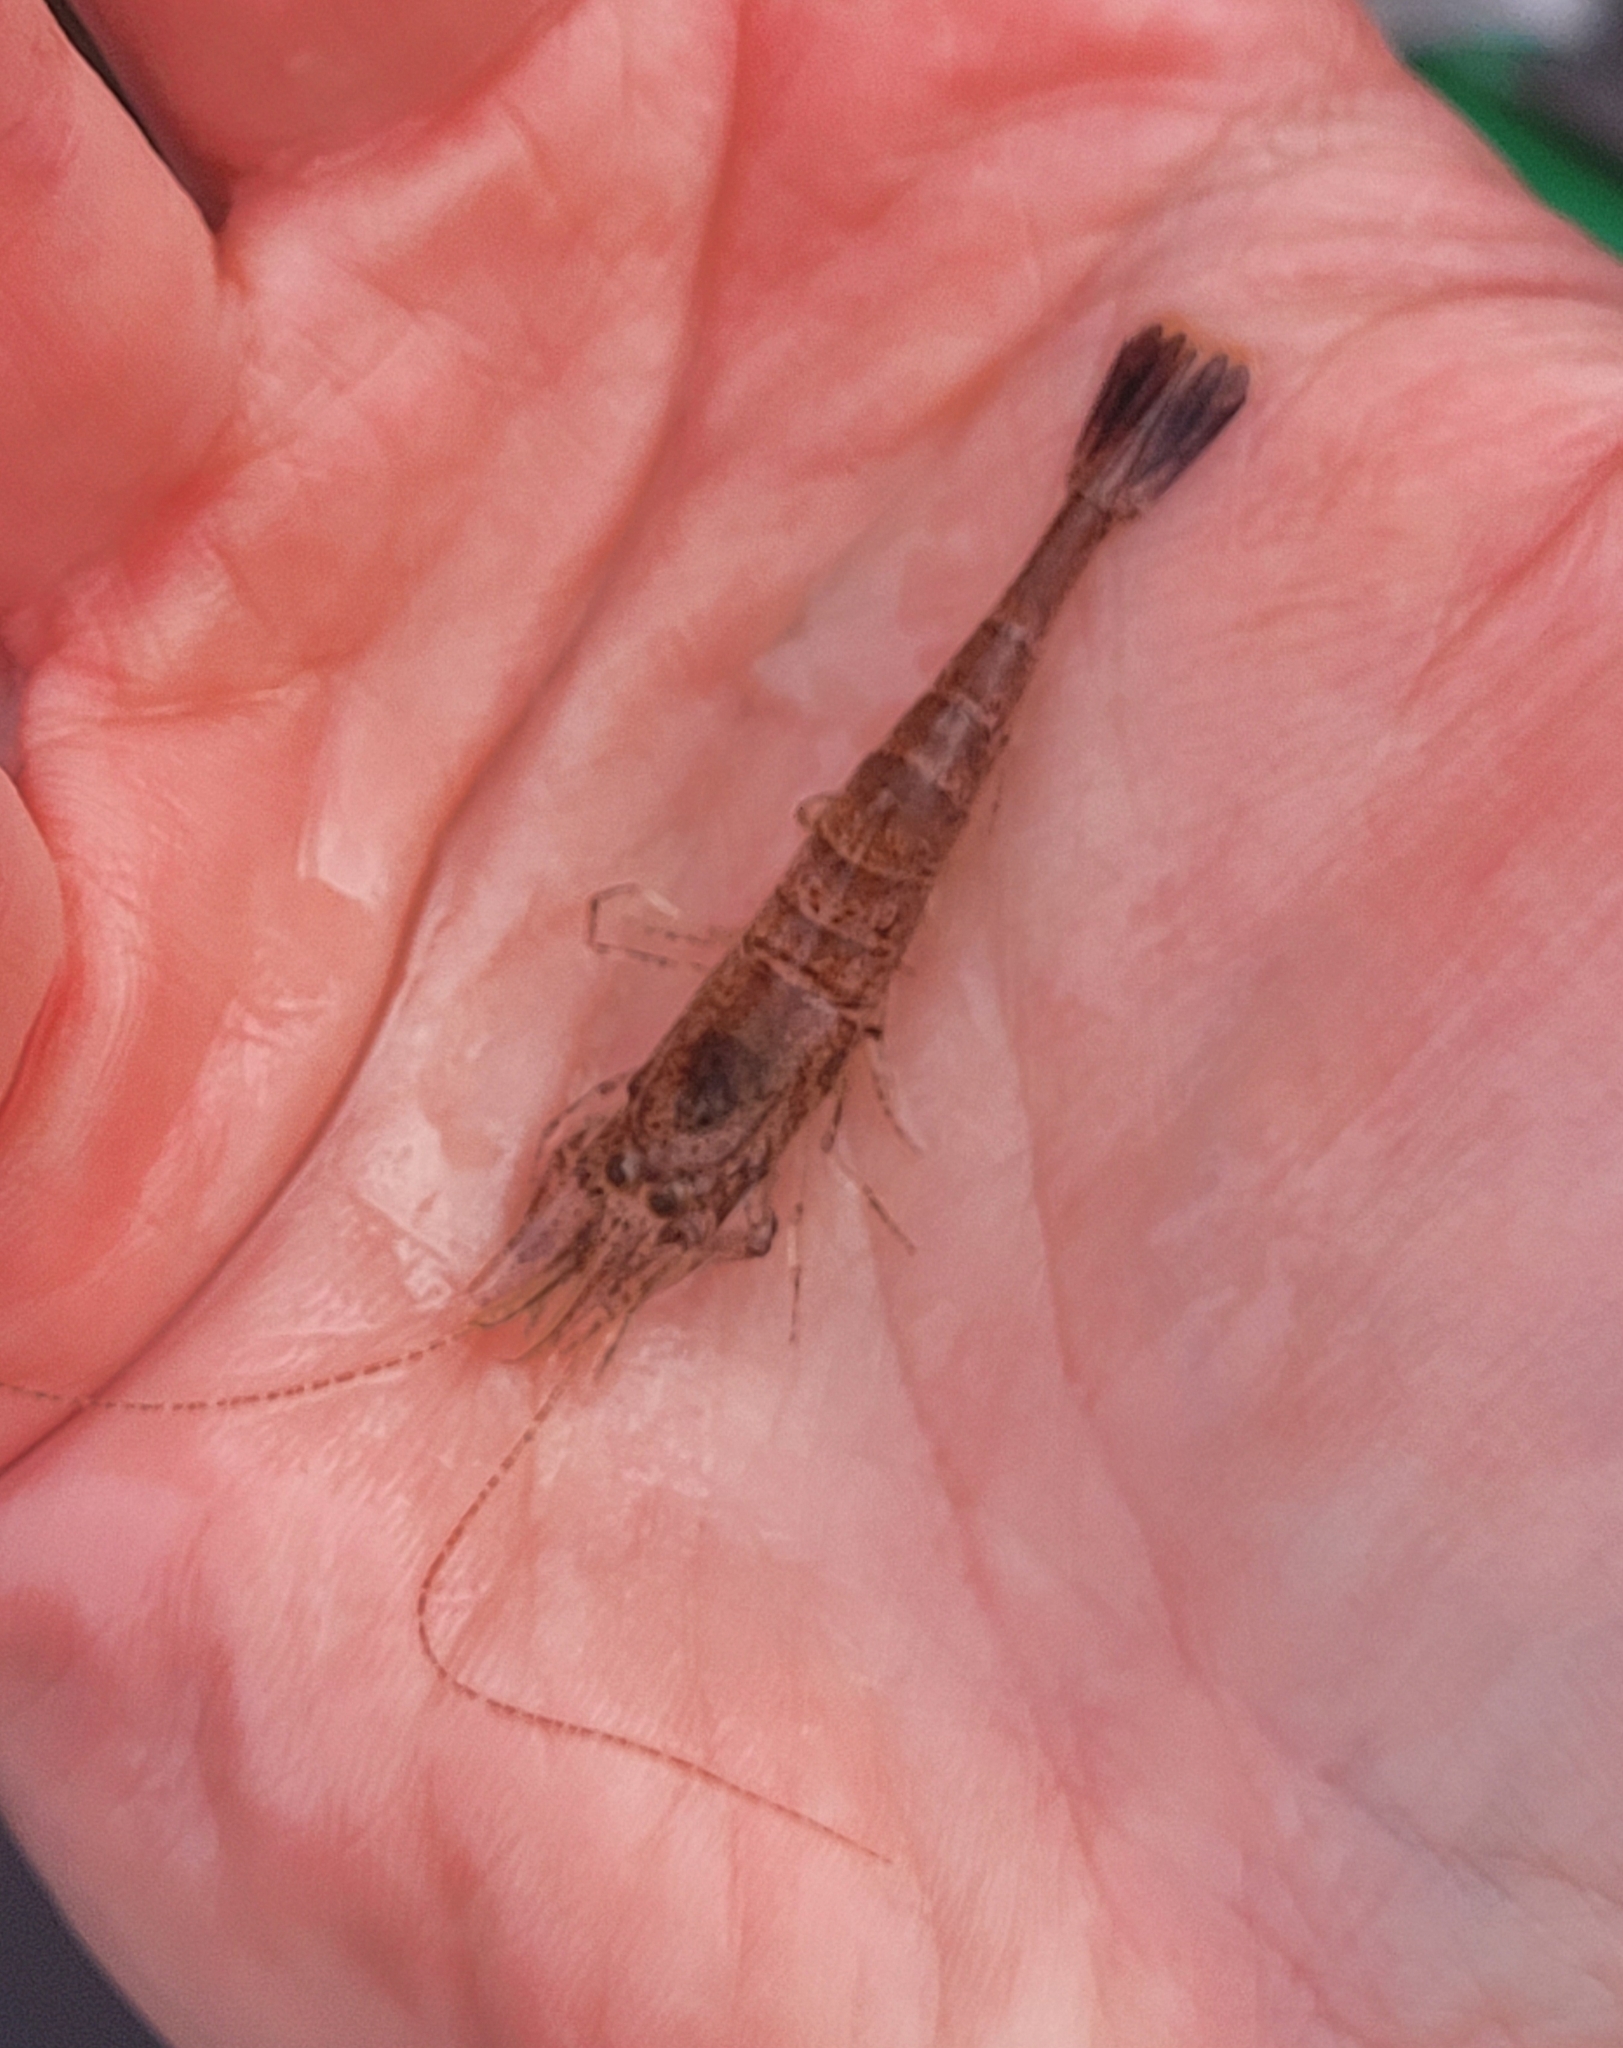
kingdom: Animalia
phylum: Arthropoda
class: Malacostraca
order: Decapoda
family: Crangonidae
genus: Crangon
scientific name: Crangon septemspinosa
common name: Bail shrimp
